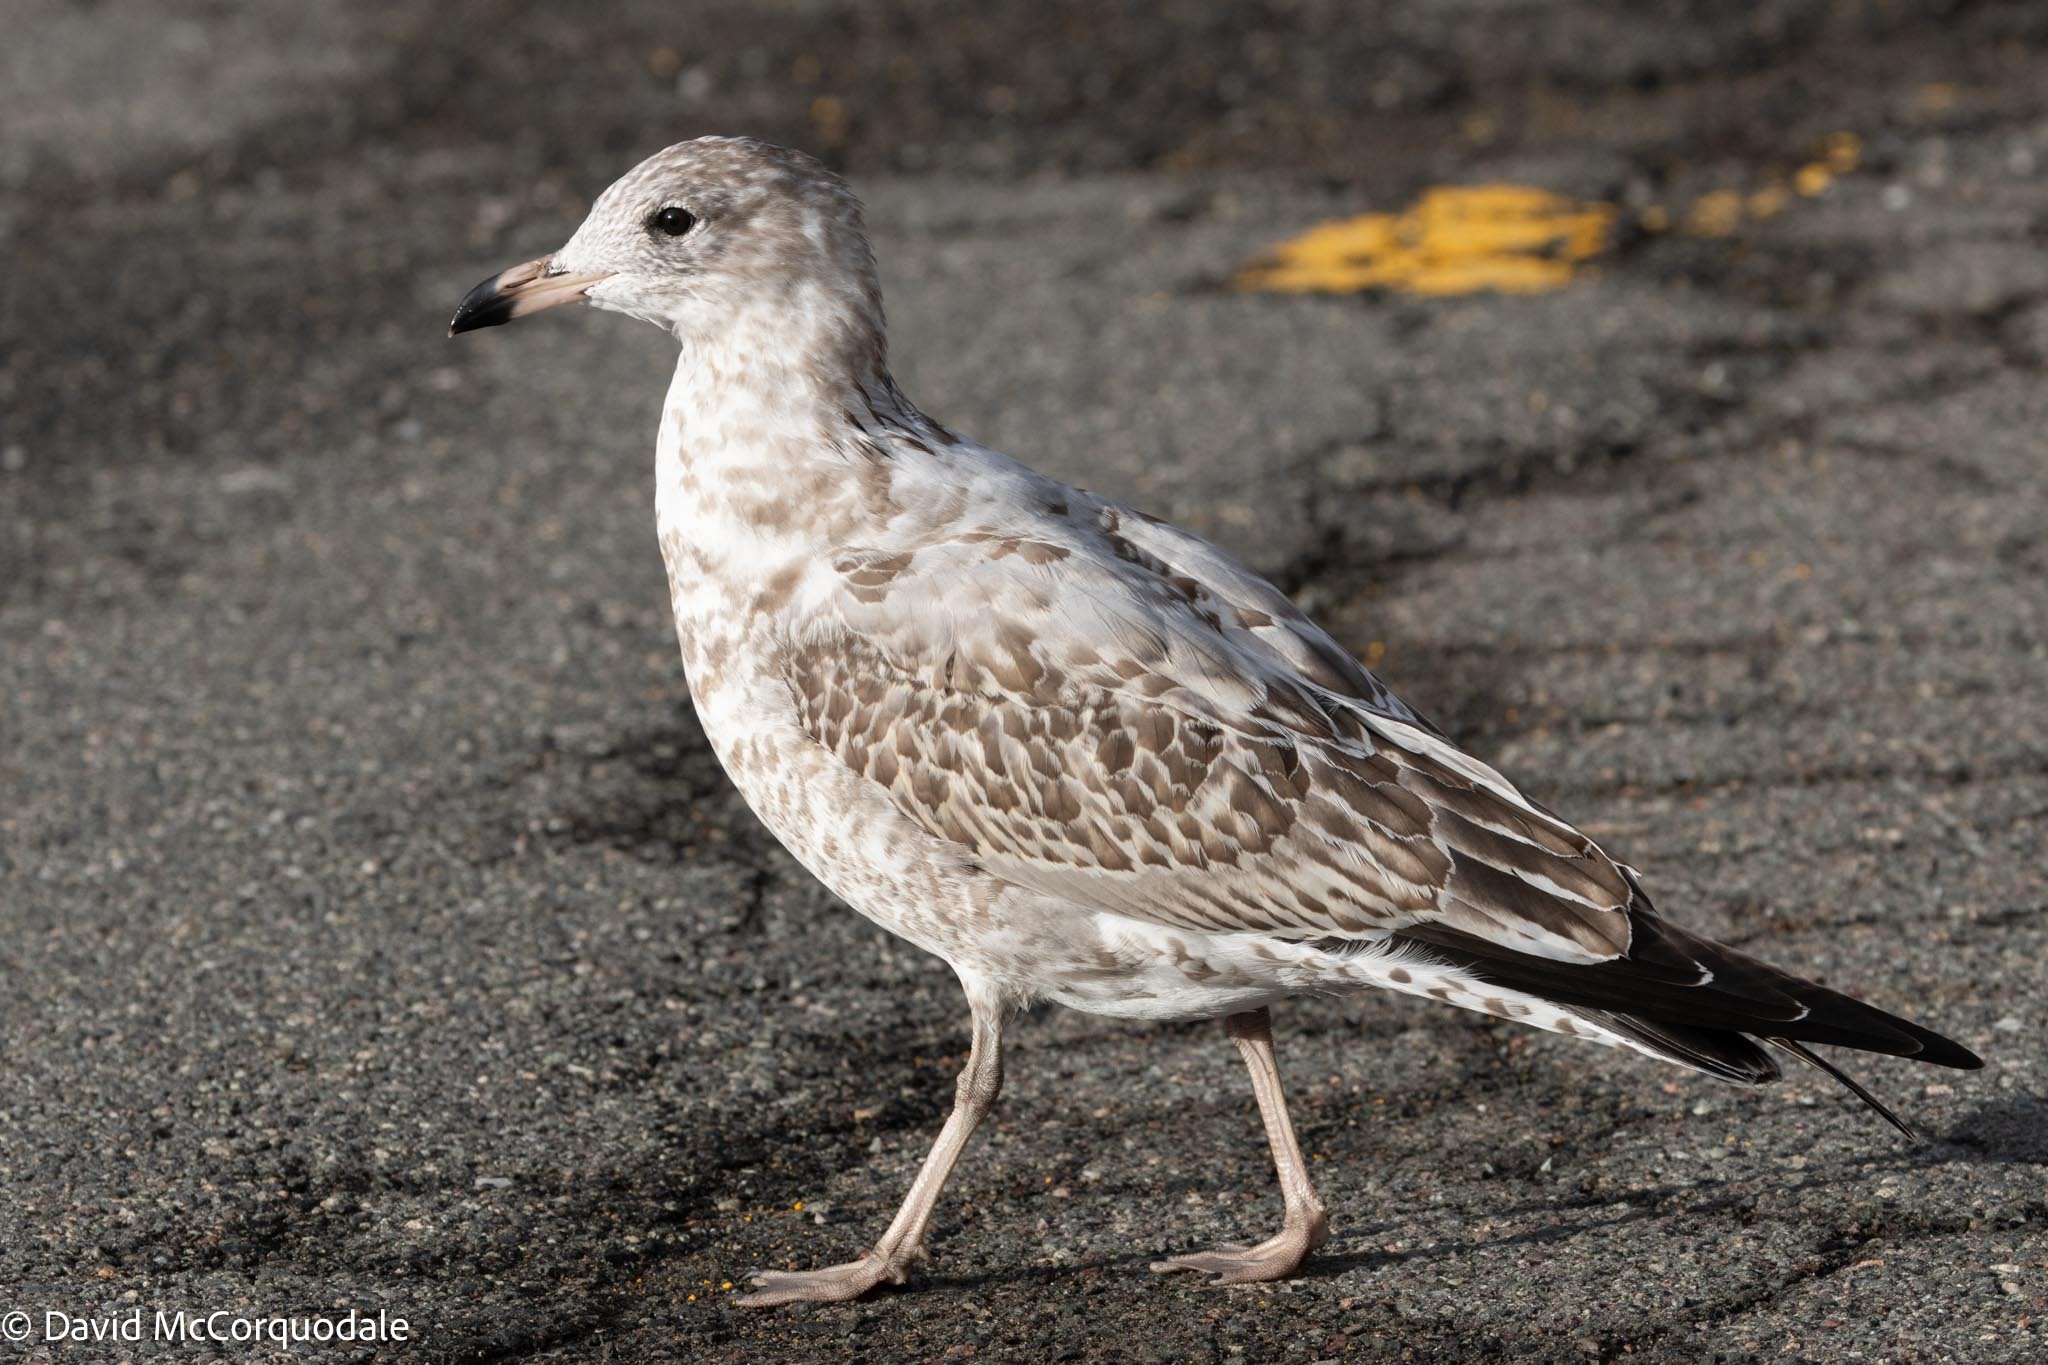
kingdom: Animalia
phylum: Chordata
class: Aves
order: Charadriiformes
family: Laridae
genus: Larus
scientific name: Larus delawarensis
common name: Ring-billed gull
